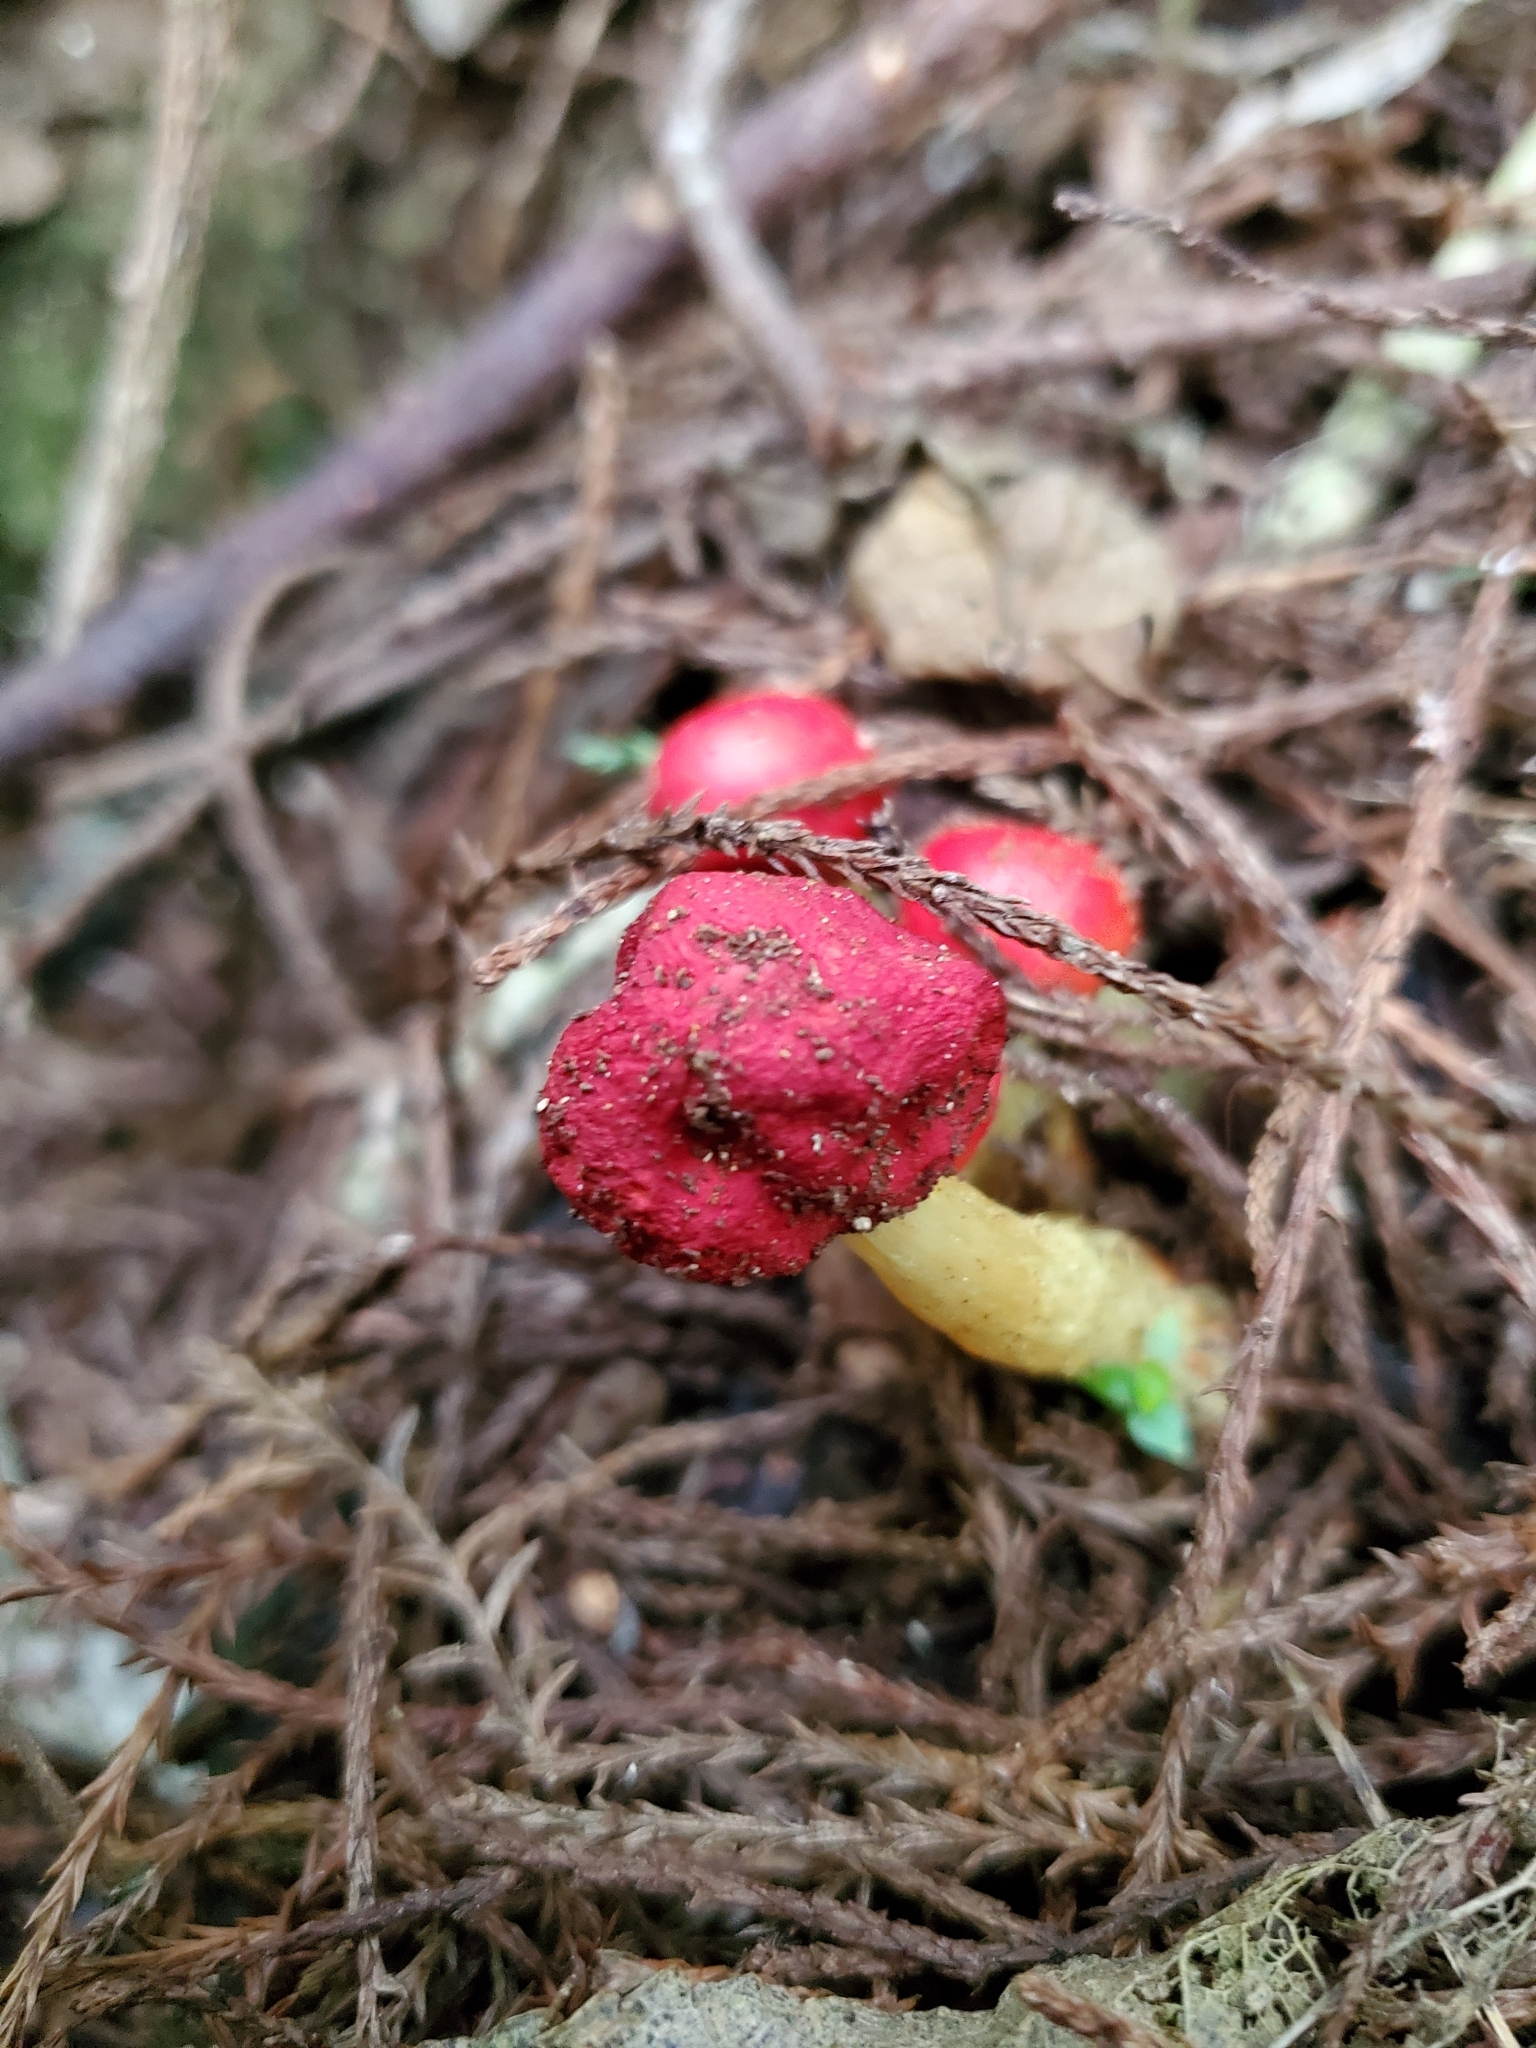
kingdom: Fungi
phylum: Basidiomycota
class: Agaricomycetes
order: Agaricales
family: Strophariaceae
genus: Leratiomyces
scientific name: Leratiomyces erythrocephalus
